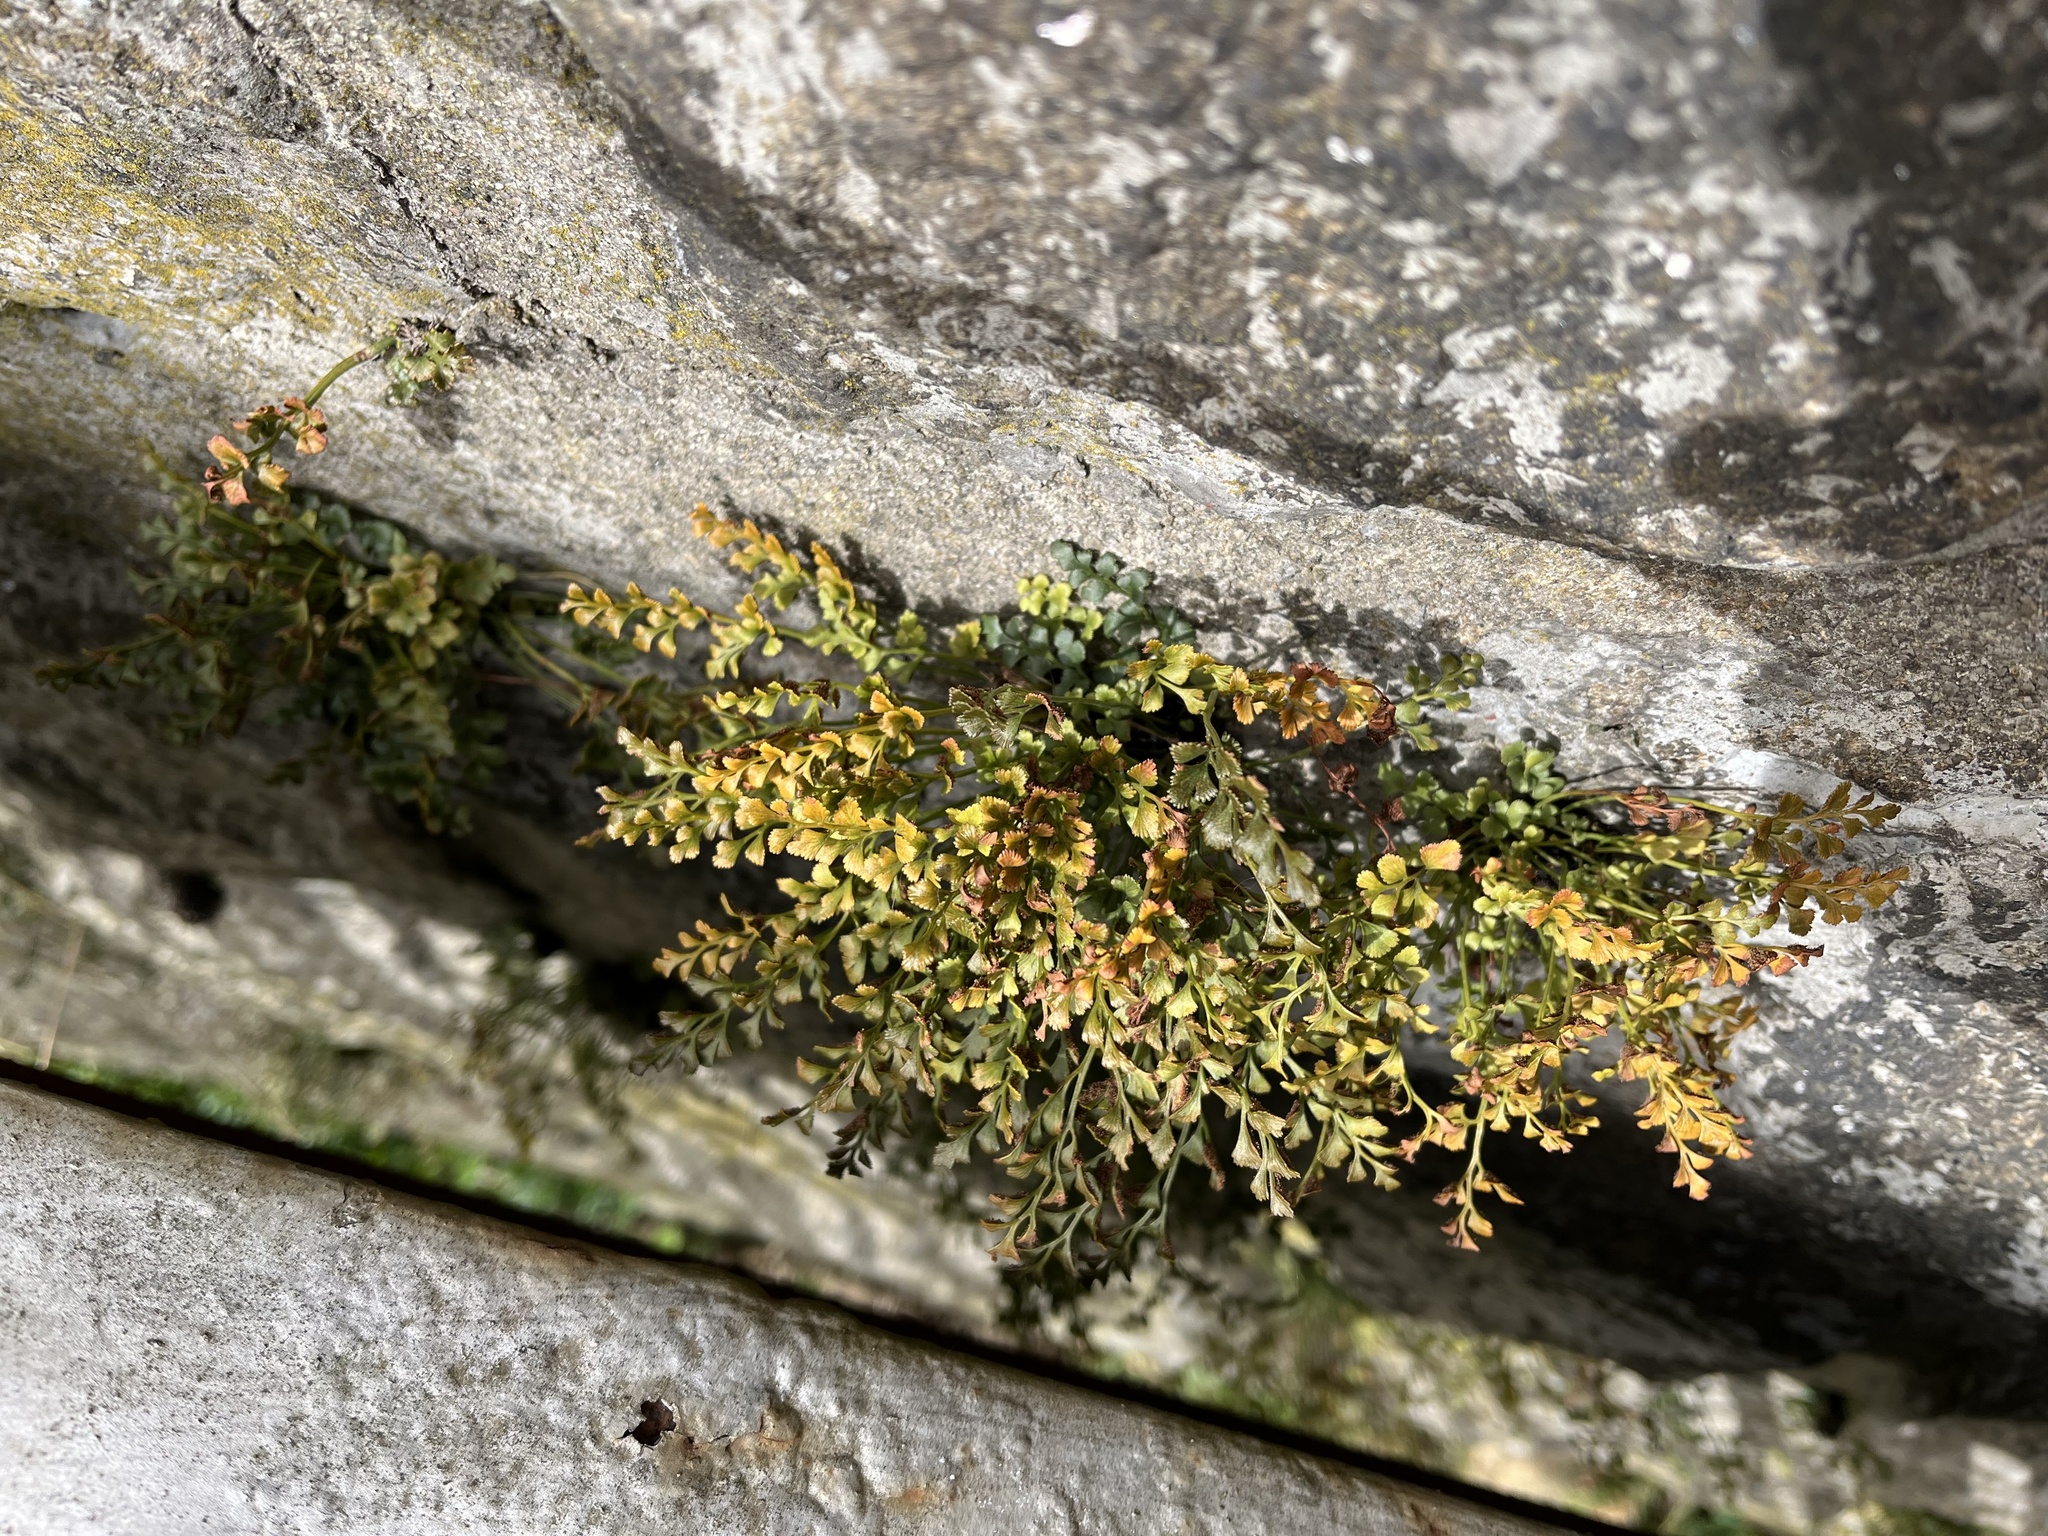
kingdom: Plantae
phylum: Tracheophyta
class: Polypodiopsida
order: Polypodiales
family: Aspleniaceae
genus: Asplenium
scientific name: Asplenium ruta-muraria
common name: Wall-rue
